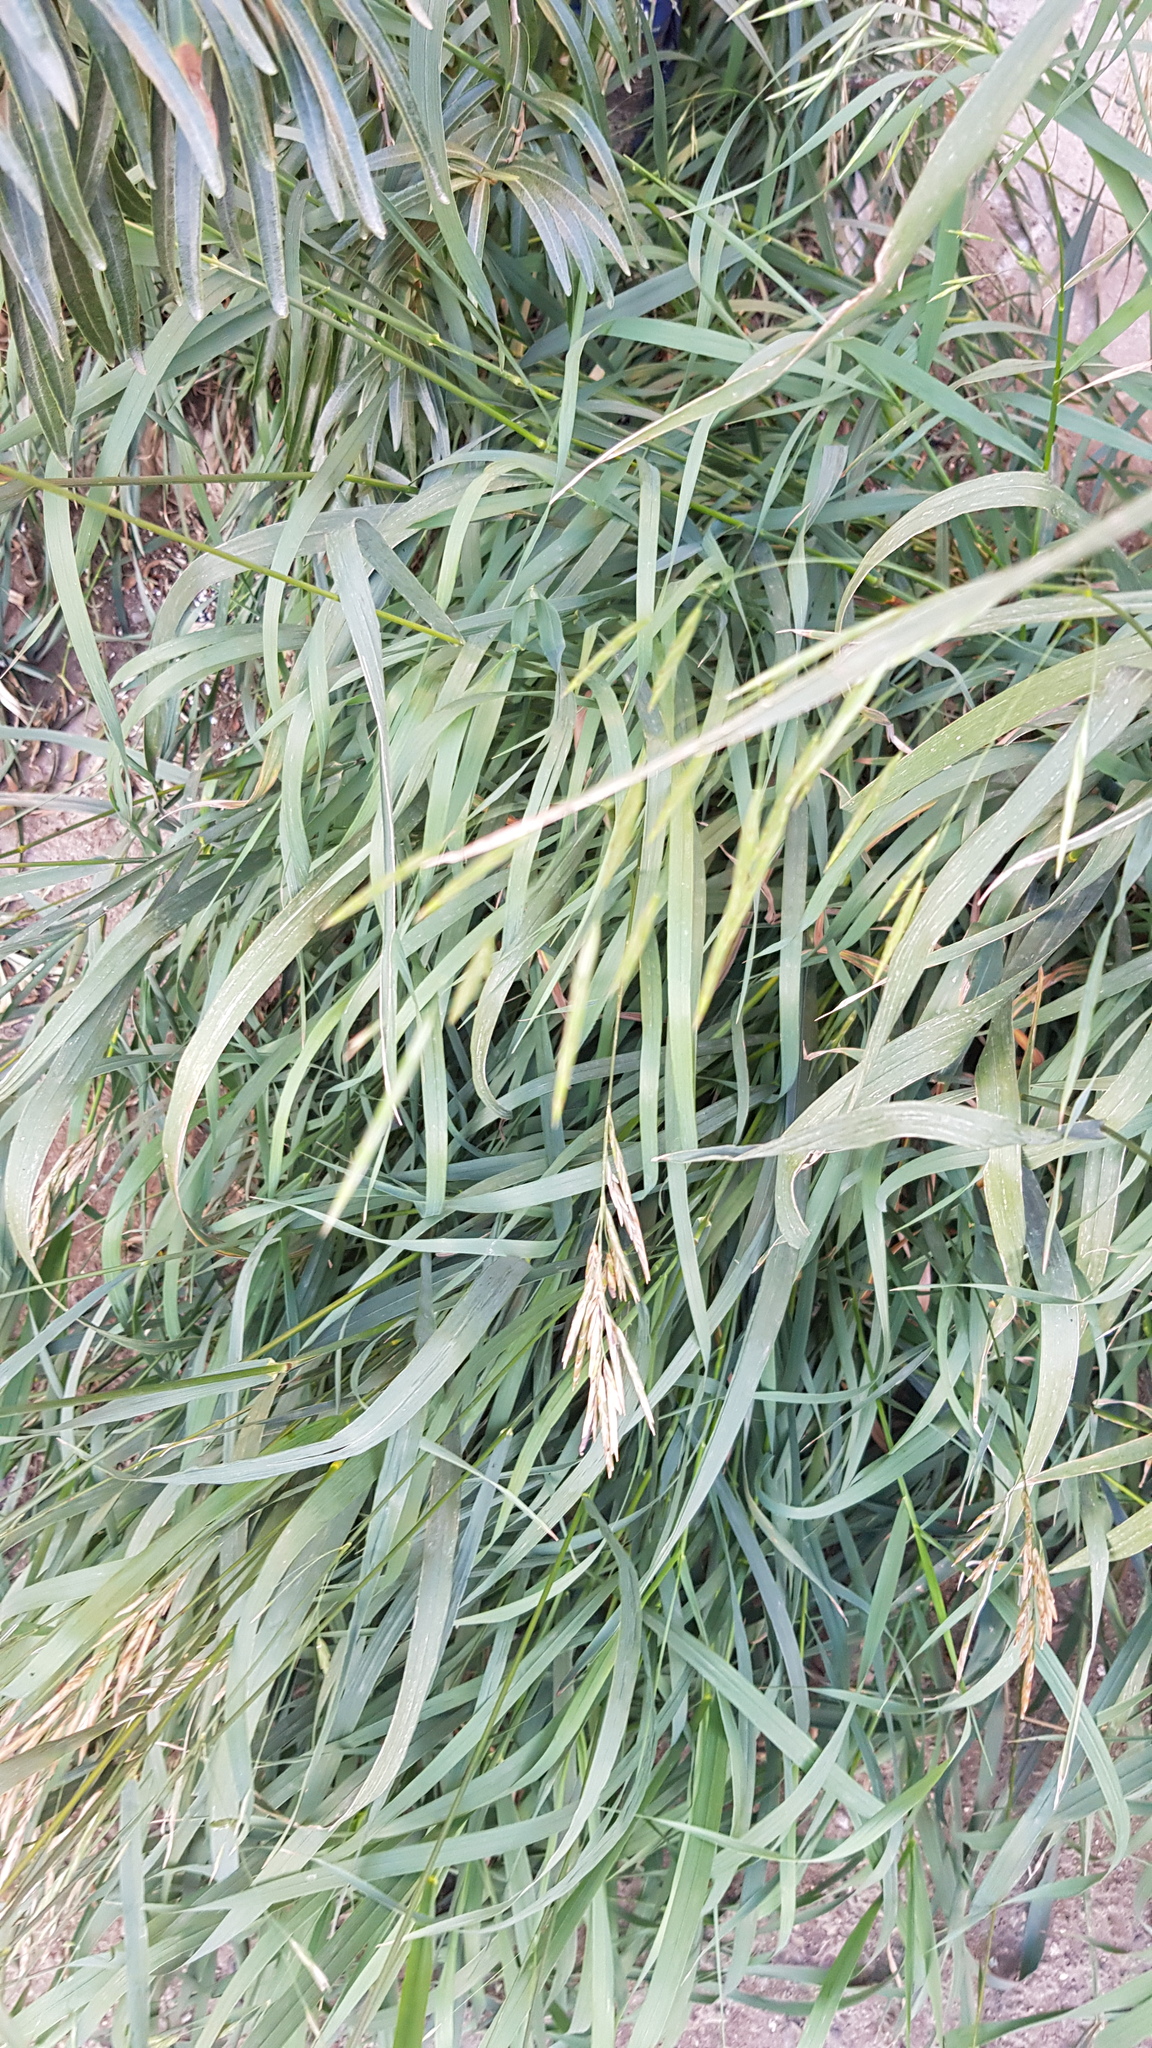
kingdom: Plantae
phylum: Tracheophyta
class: Liliopsida
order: Poales
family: Poaceae
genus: Bromus
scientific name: Bromus inermis
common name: Smooth brome
